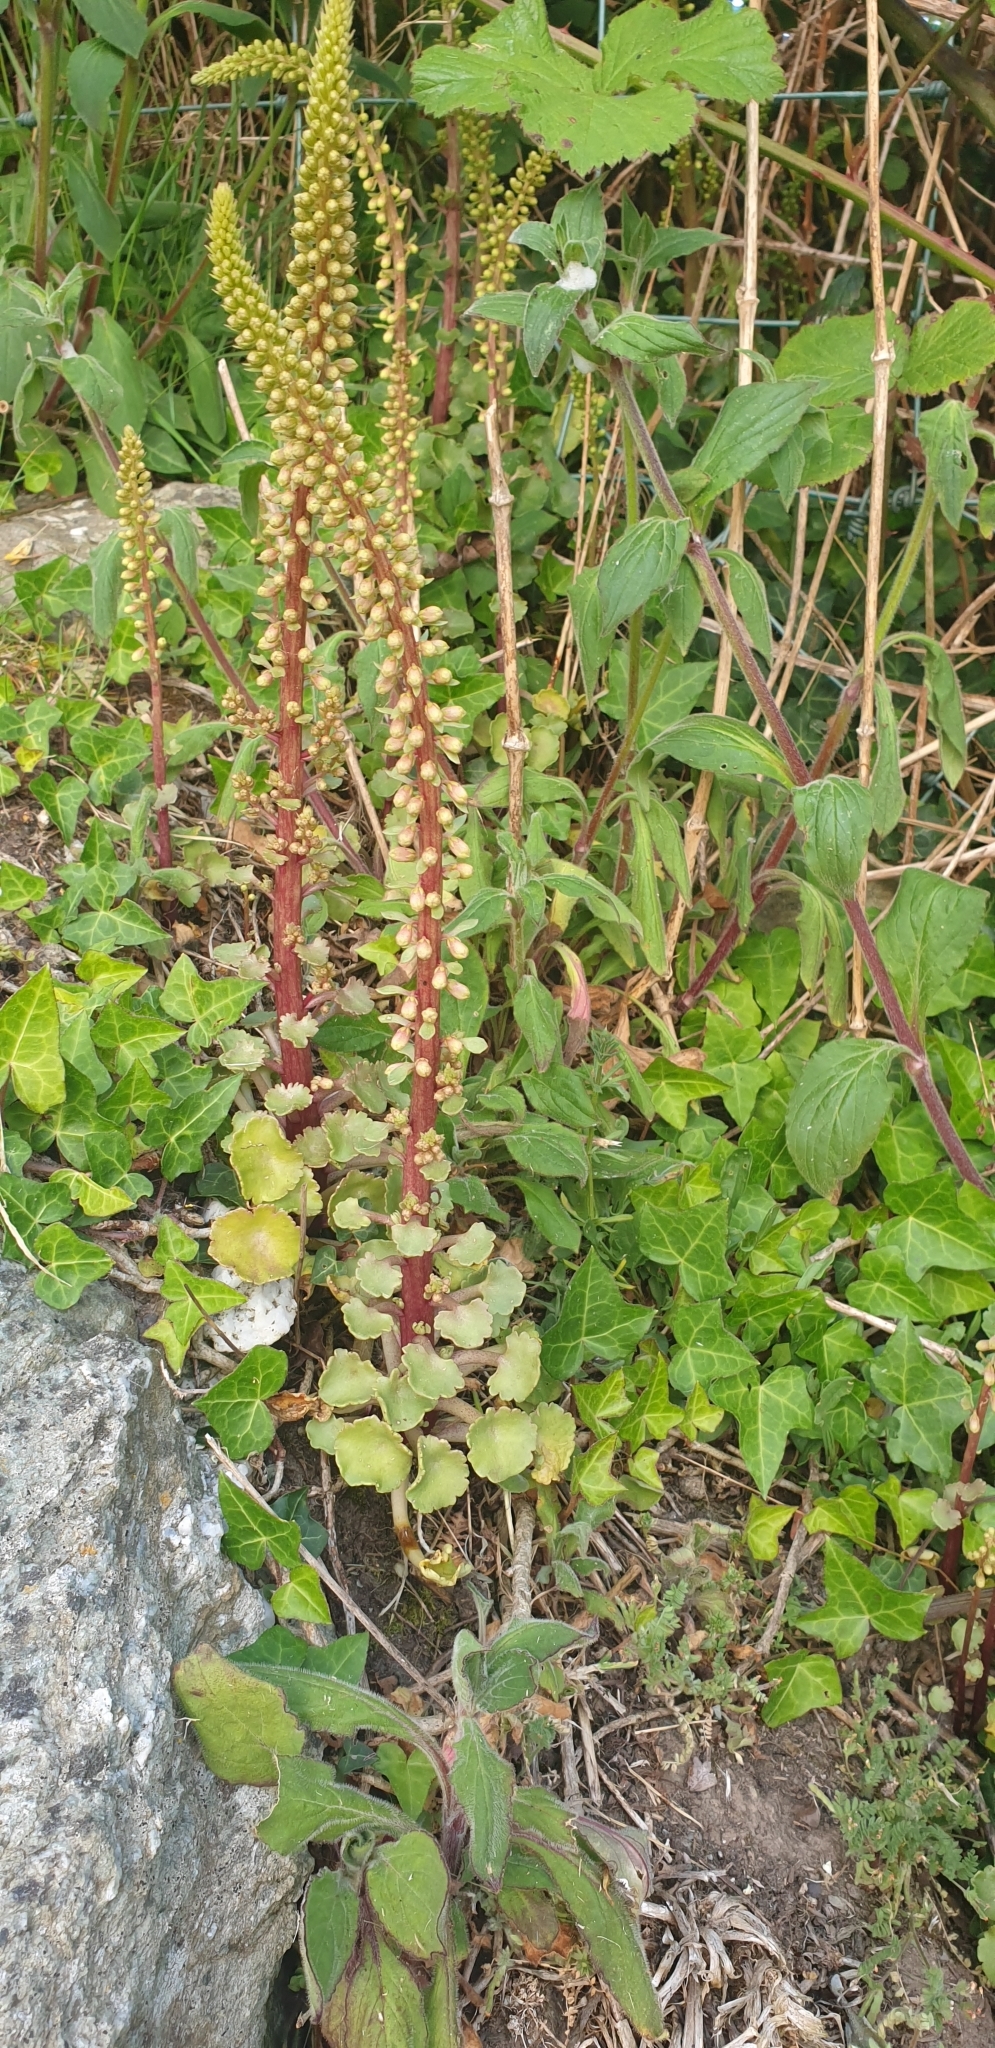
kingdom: Plantae
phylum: Tracheophyta
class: Magnoliopsida
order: Saxifragales
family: Crassulaceae
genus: Umbilicus
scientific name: Umbilicus rupestris
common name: Navelwort
